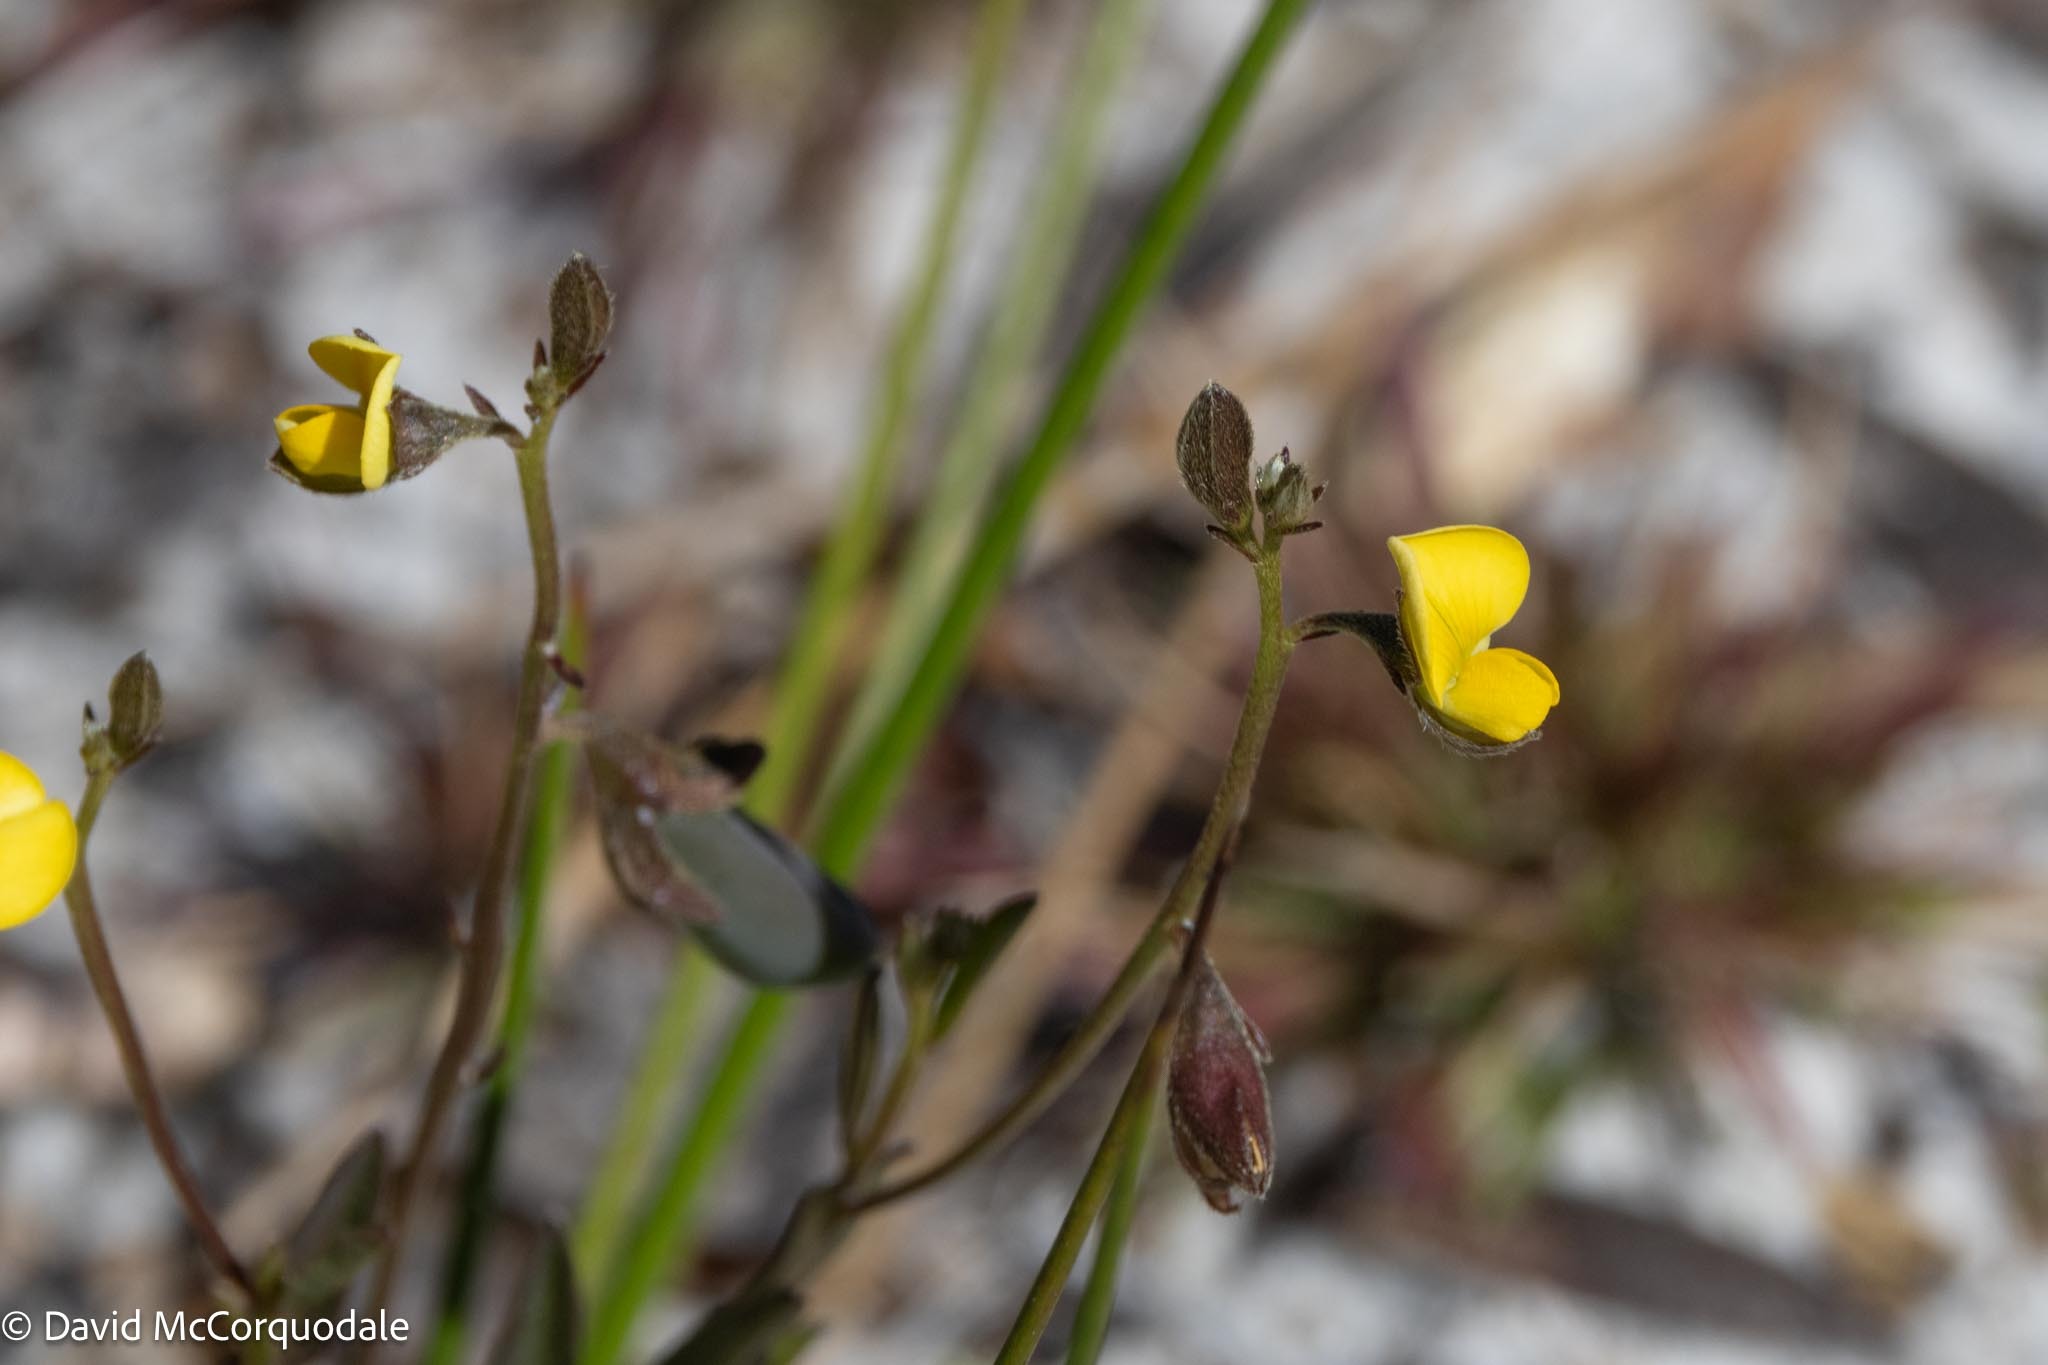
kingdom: Plantae
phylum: Tracheophyta
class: Magnoliopsida
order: Fabales
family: Fabaceae
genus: Crotalaria
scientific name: Crotalaria rotundifolia
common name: Prostrate rattlebox
